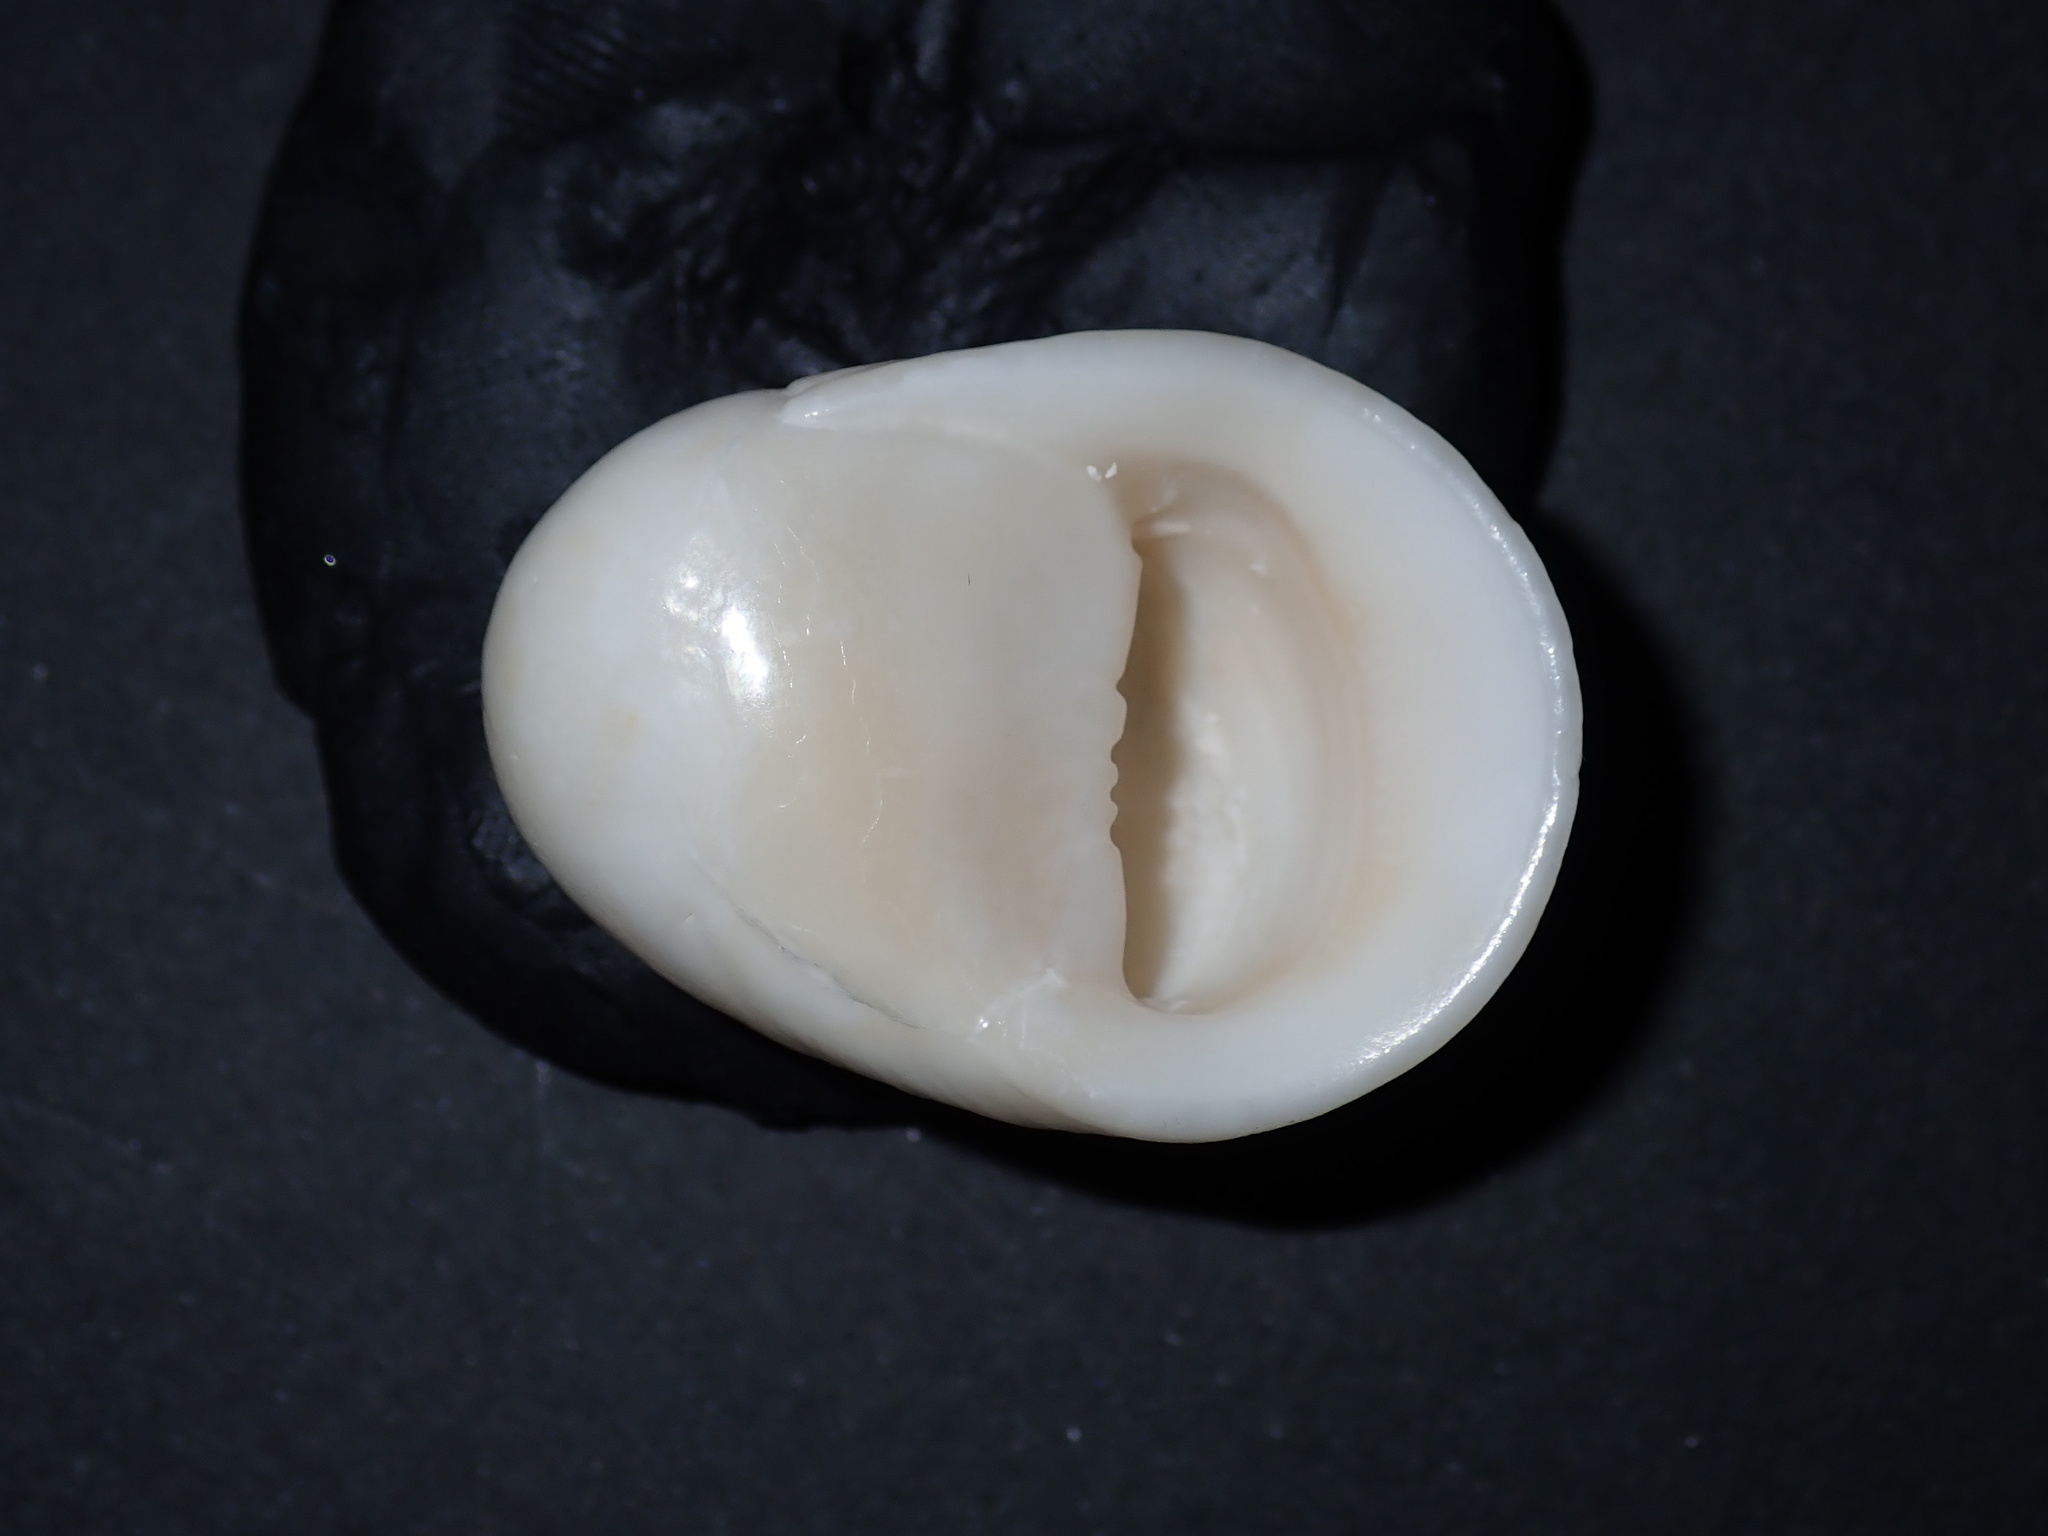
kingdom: Animalia
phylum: Mollusca
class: Gastropoda
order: Cycloneritida
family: Neritidae
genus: Nerita
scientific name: Nerita polita
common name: Polished nerite
